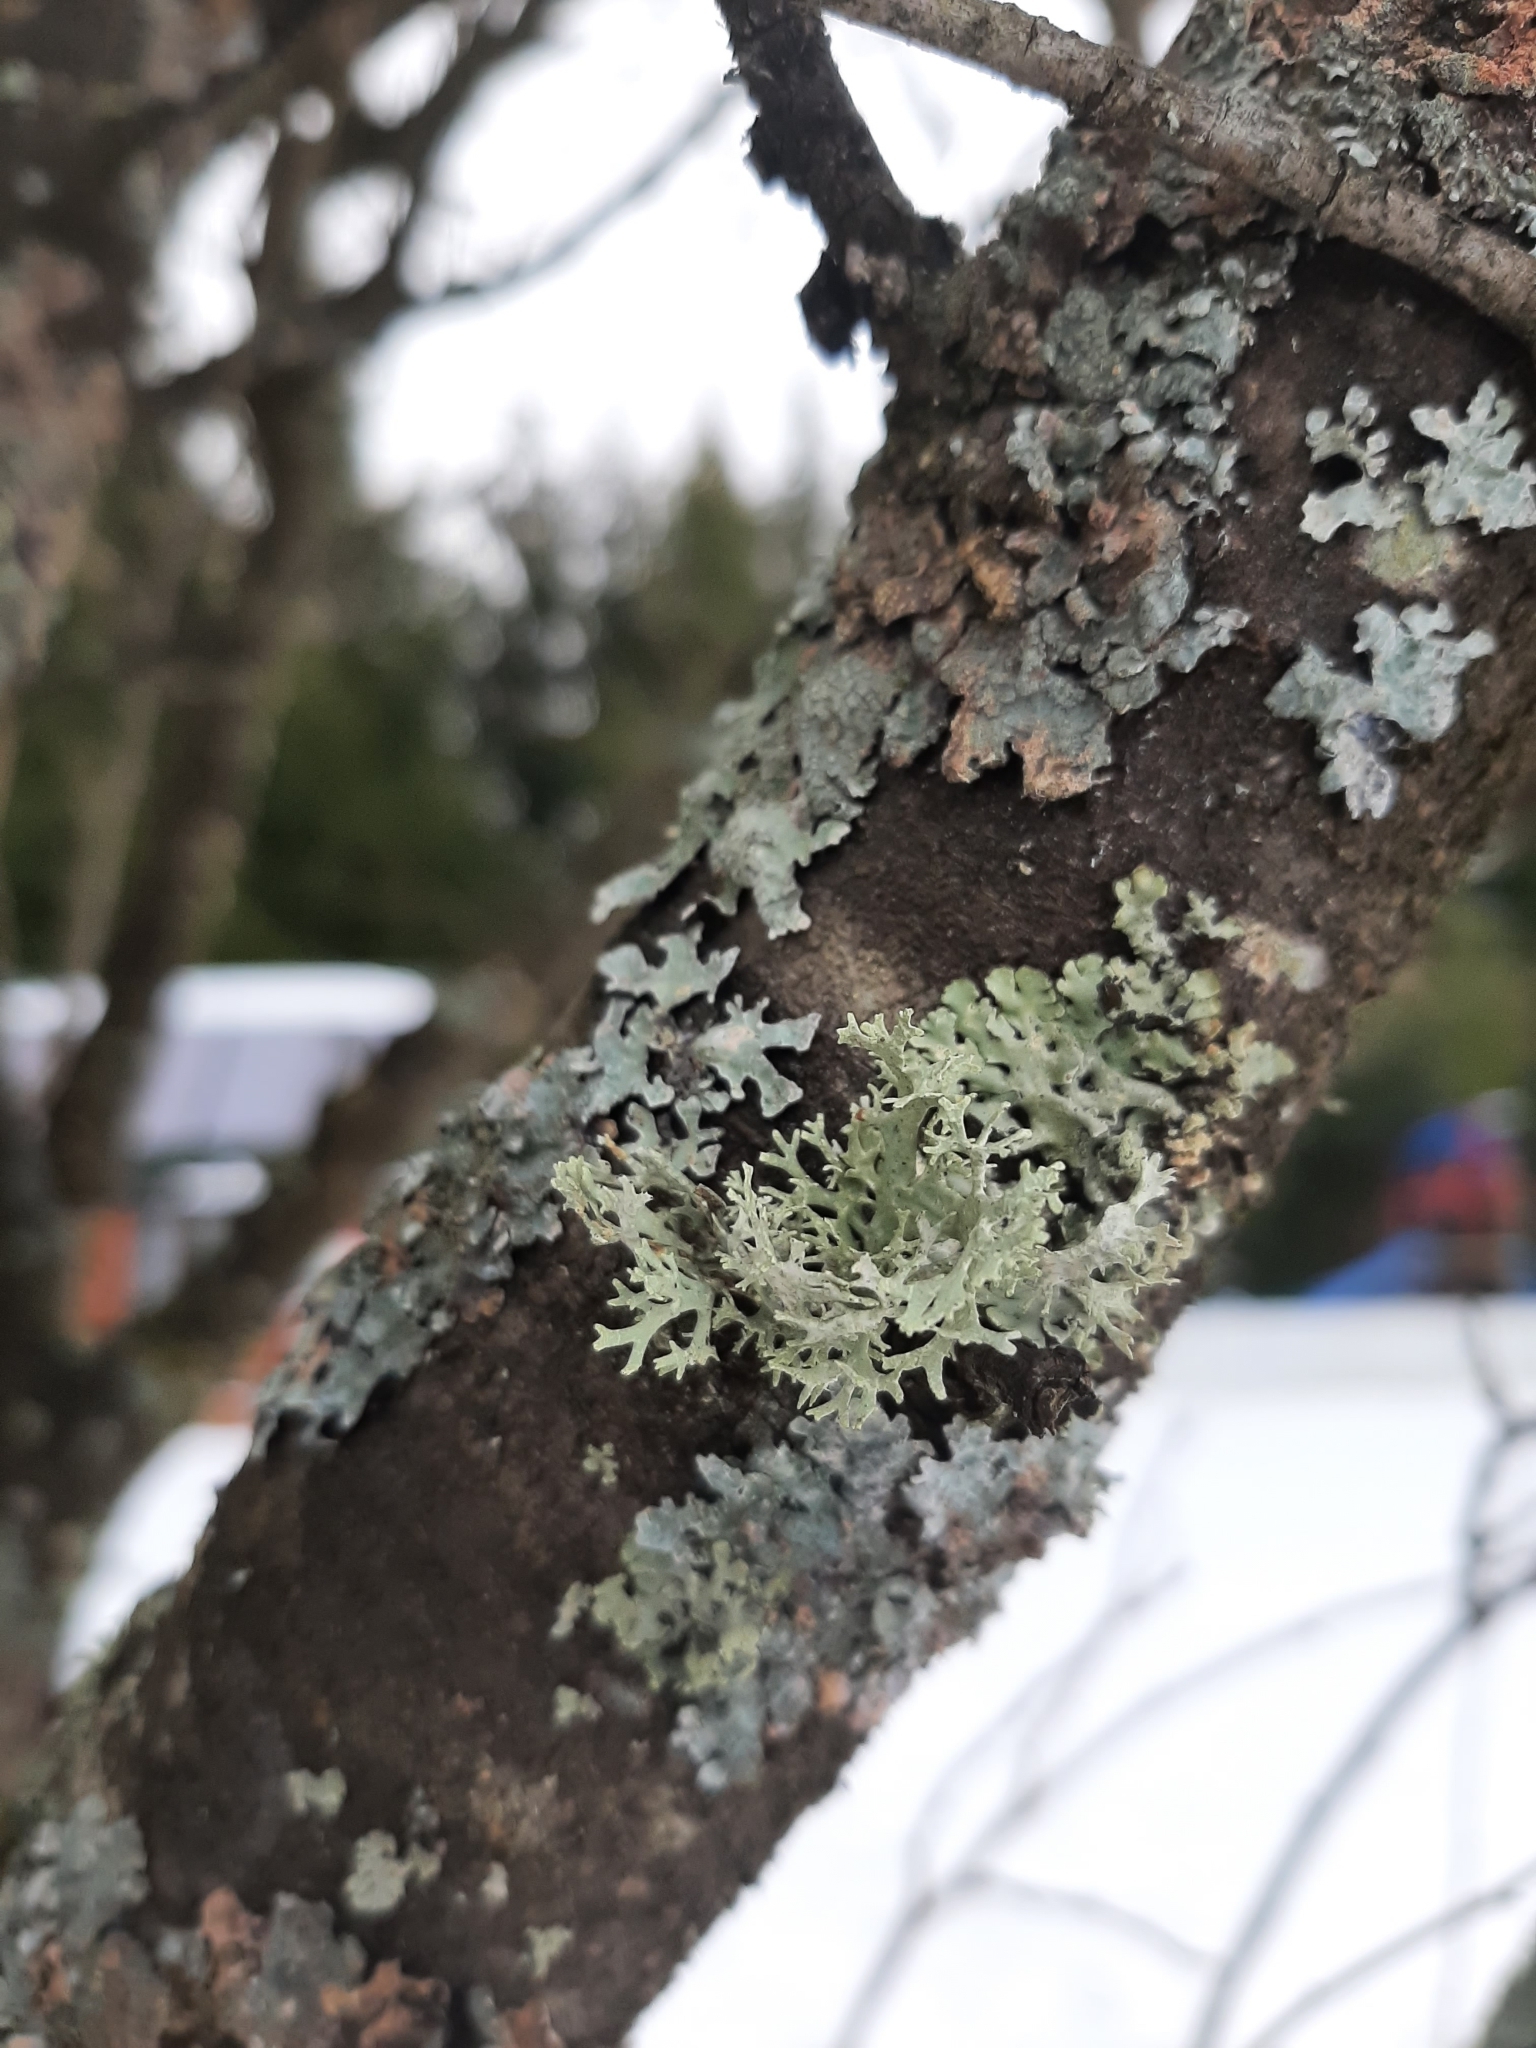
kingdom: Fungi
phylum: Ascomycota
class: Lecanoromycetes
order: Lecanorales
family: Parmeliaceae
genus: Evernia
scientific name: Evernia prunastri
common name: Oak moss
